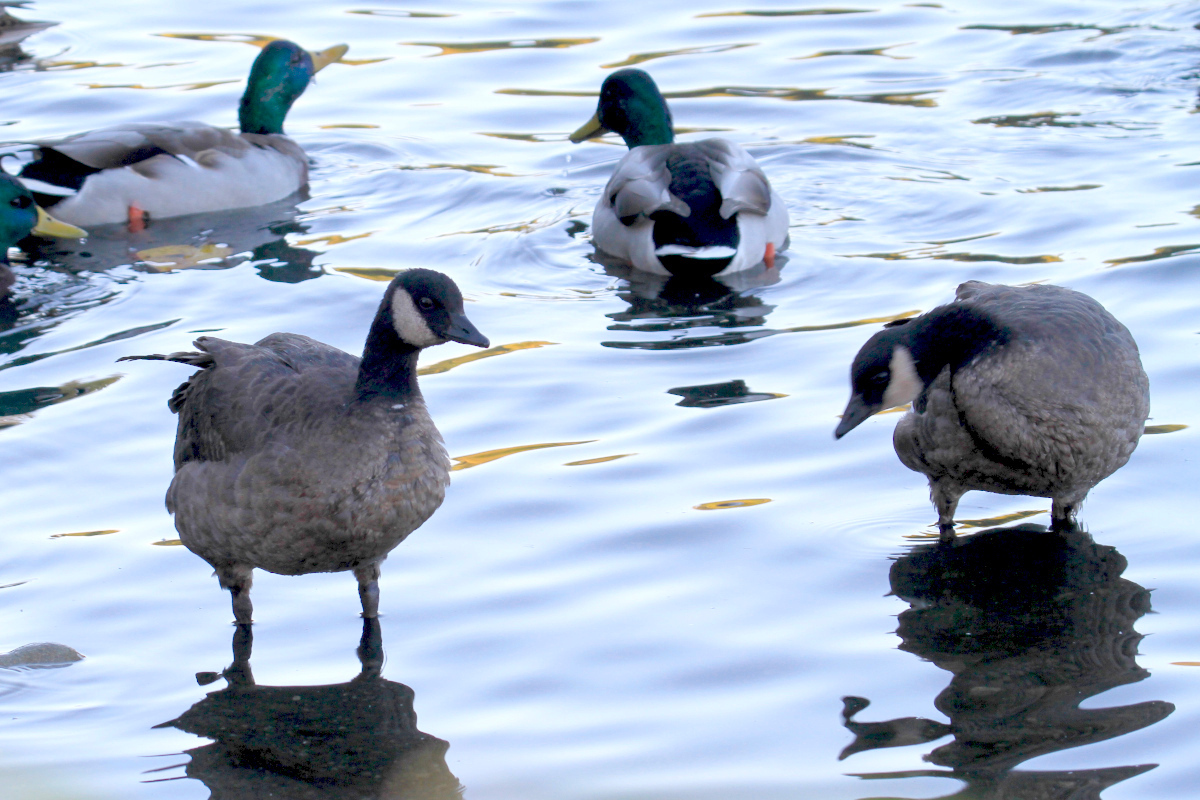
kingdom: Animalia
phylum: Chordata
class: Aves
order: Anseriformes
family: Anatidae
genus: Branta
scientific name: Branta canadensis
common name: Canada goose
